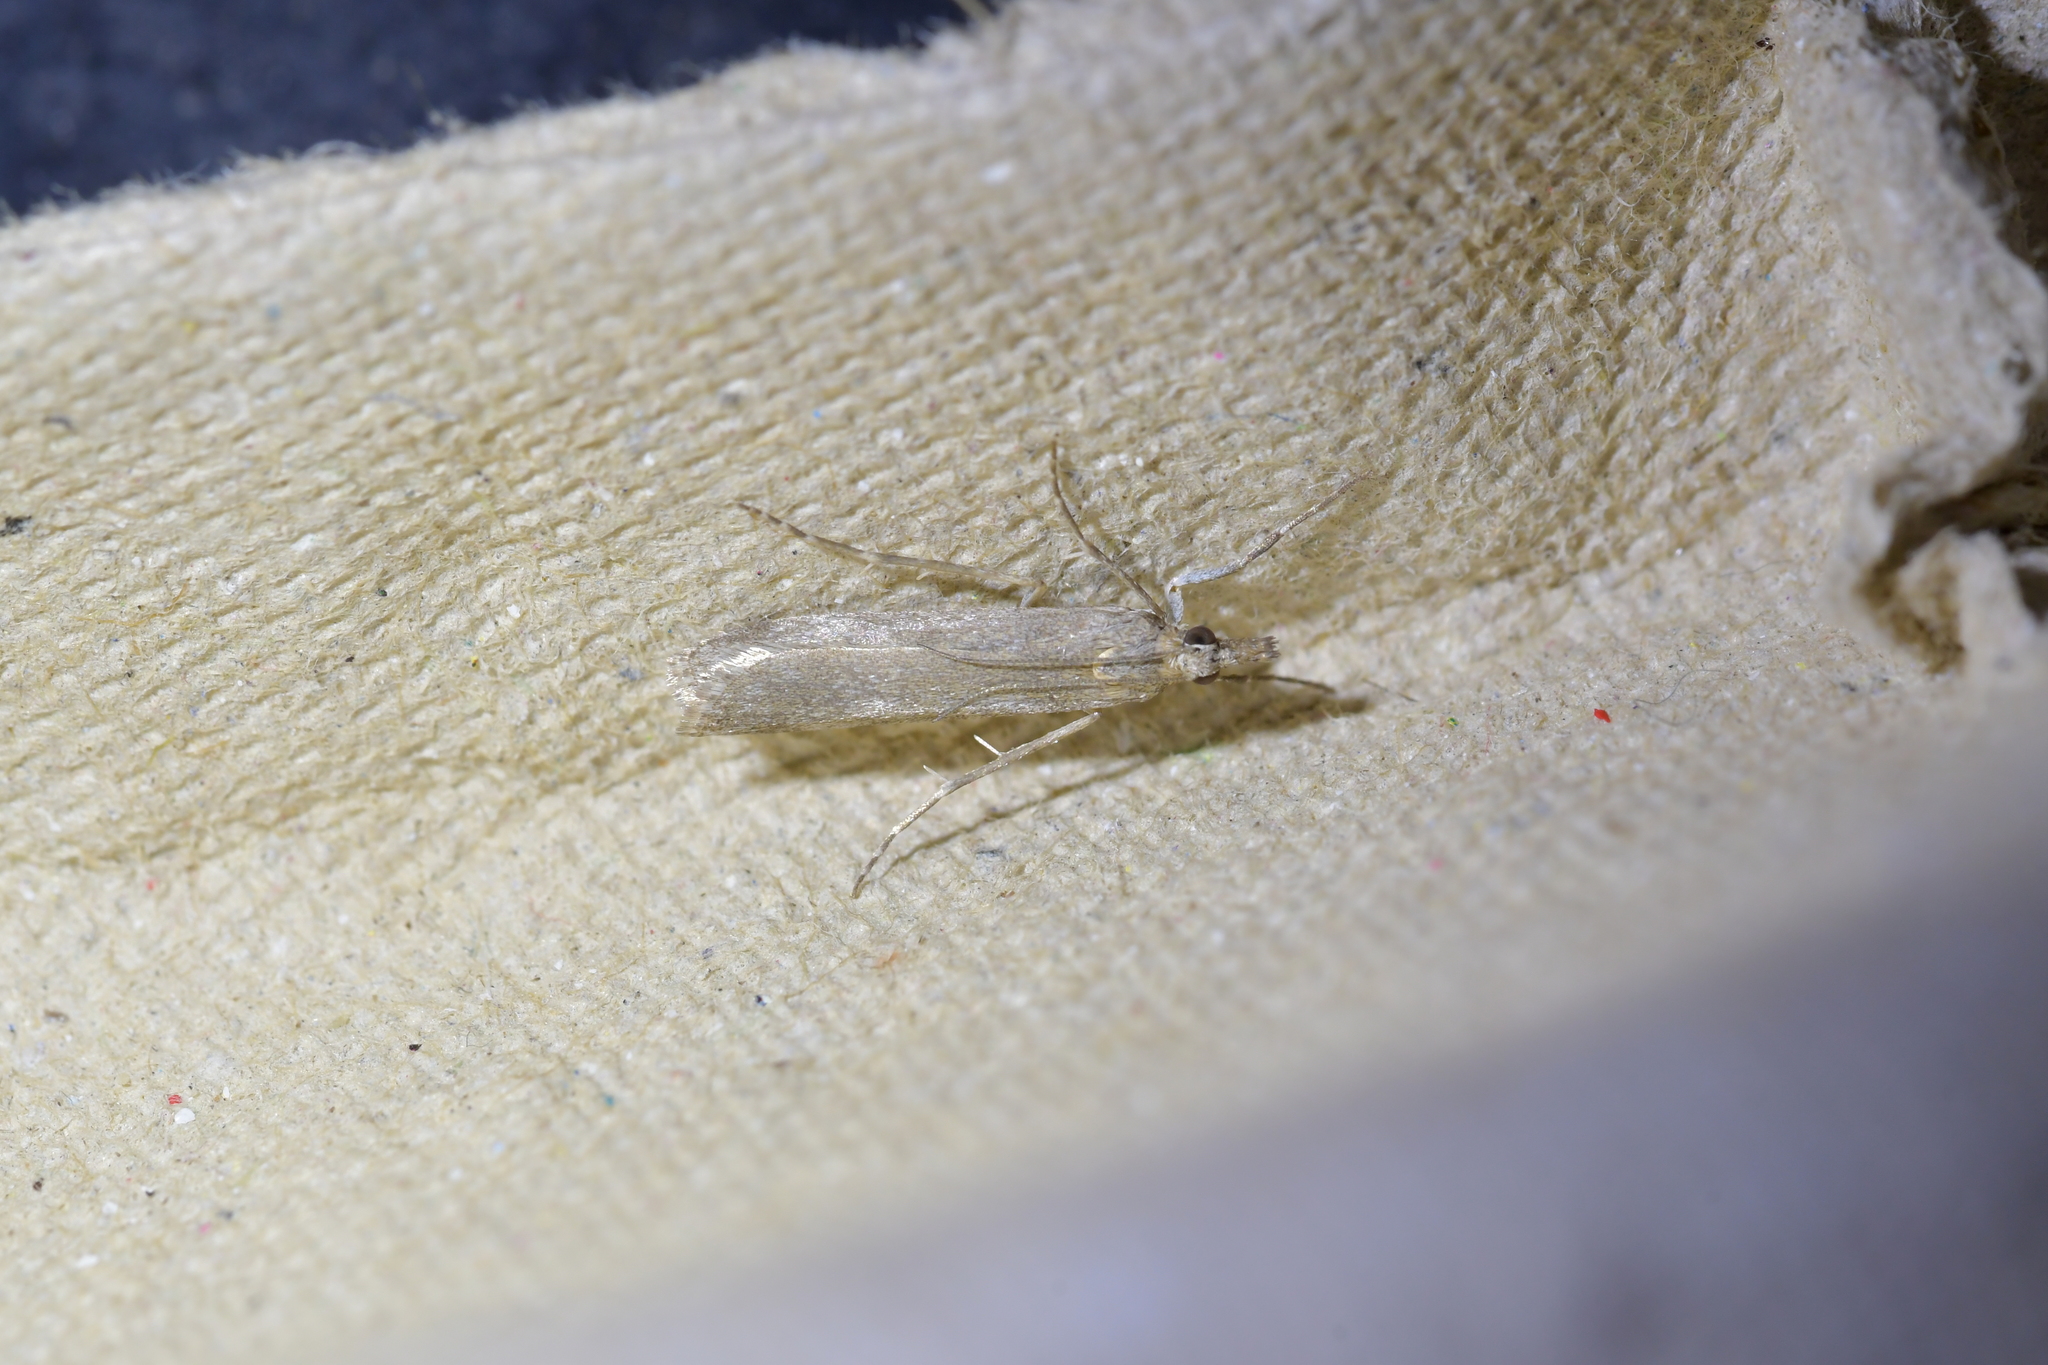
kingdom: Animalia
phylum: Arthropoda
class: Insecta
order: Lepidoptera
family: Crambidae
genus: Eudonia
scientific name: Eudonia leptalea
